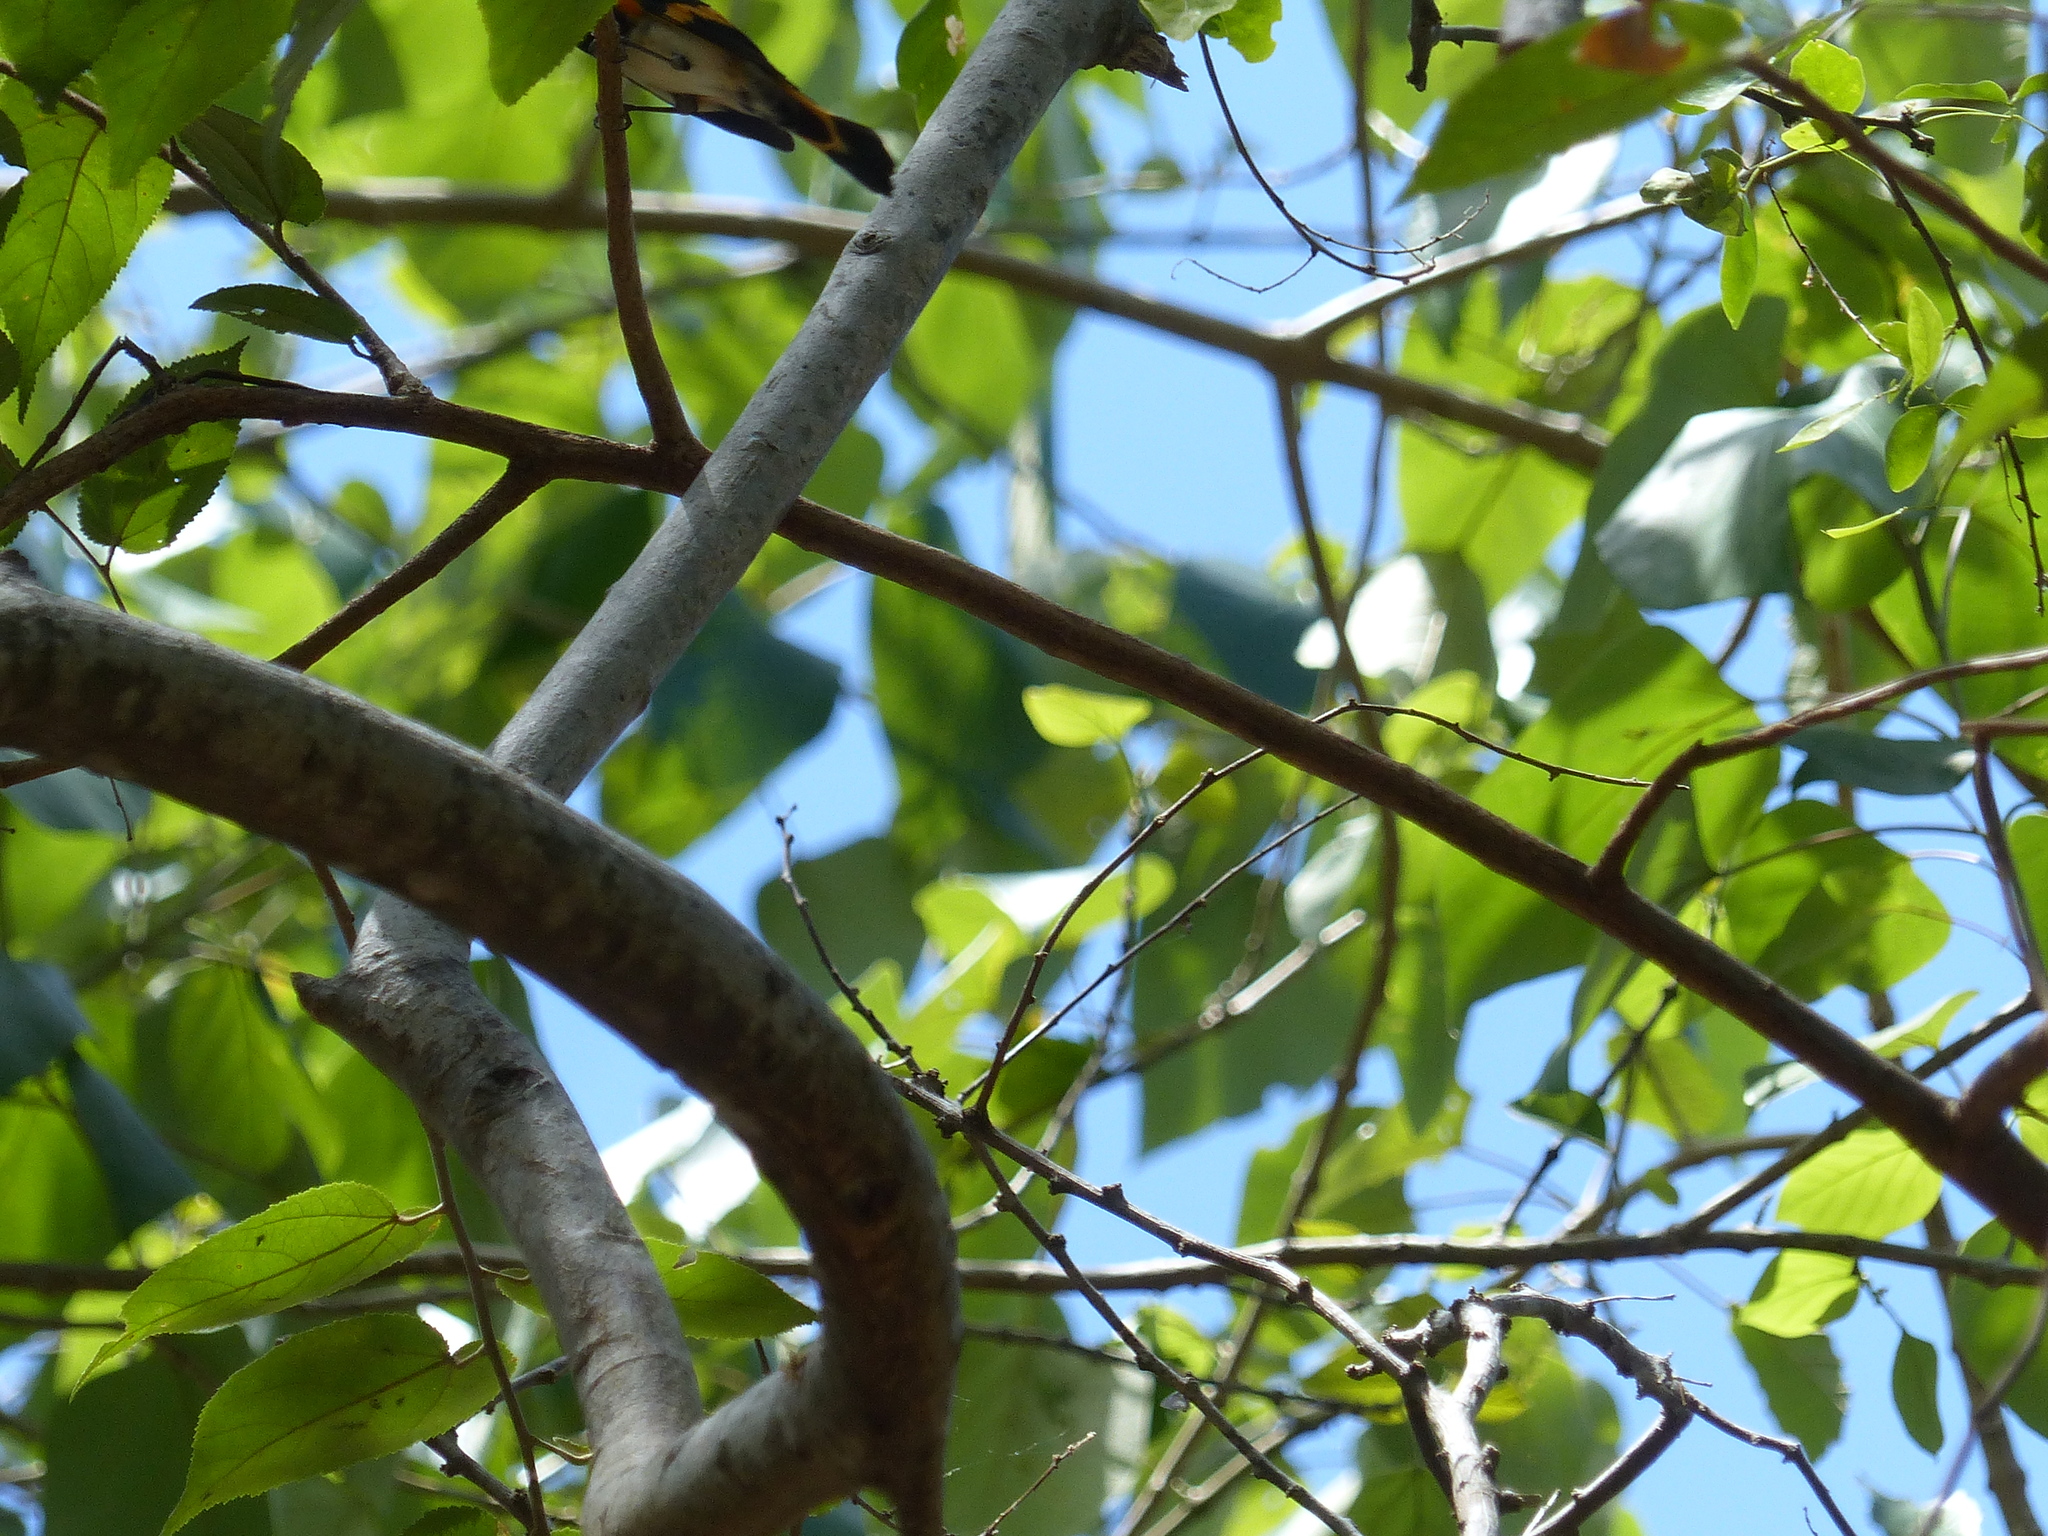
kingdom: Animalia
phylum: Chordata
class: Aves
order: Passeriformes
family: Parulidae
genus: Setophaga
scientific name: Setophaga ruticilla
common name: American redstart
